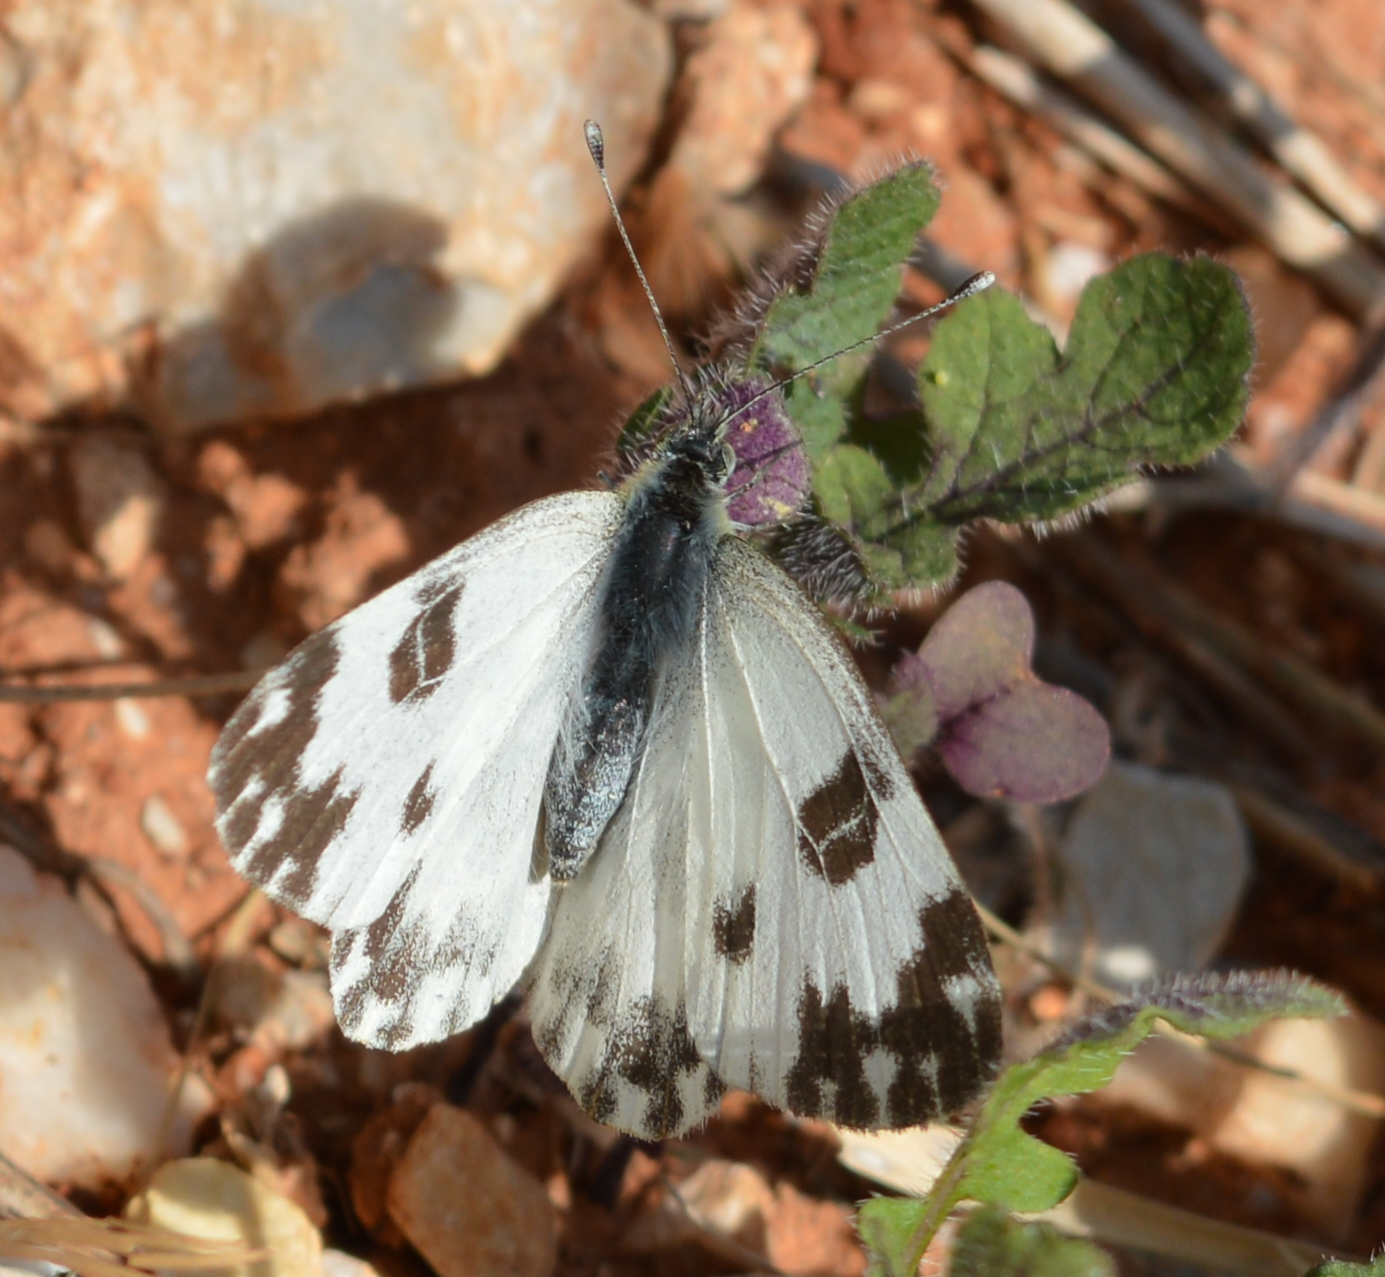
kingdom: Animalia
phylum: Arthropoda
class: Insecta
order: Lepidoptera
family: Pieridae
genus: Pontia
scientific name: Pontia edusa
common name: Eastern bath white
